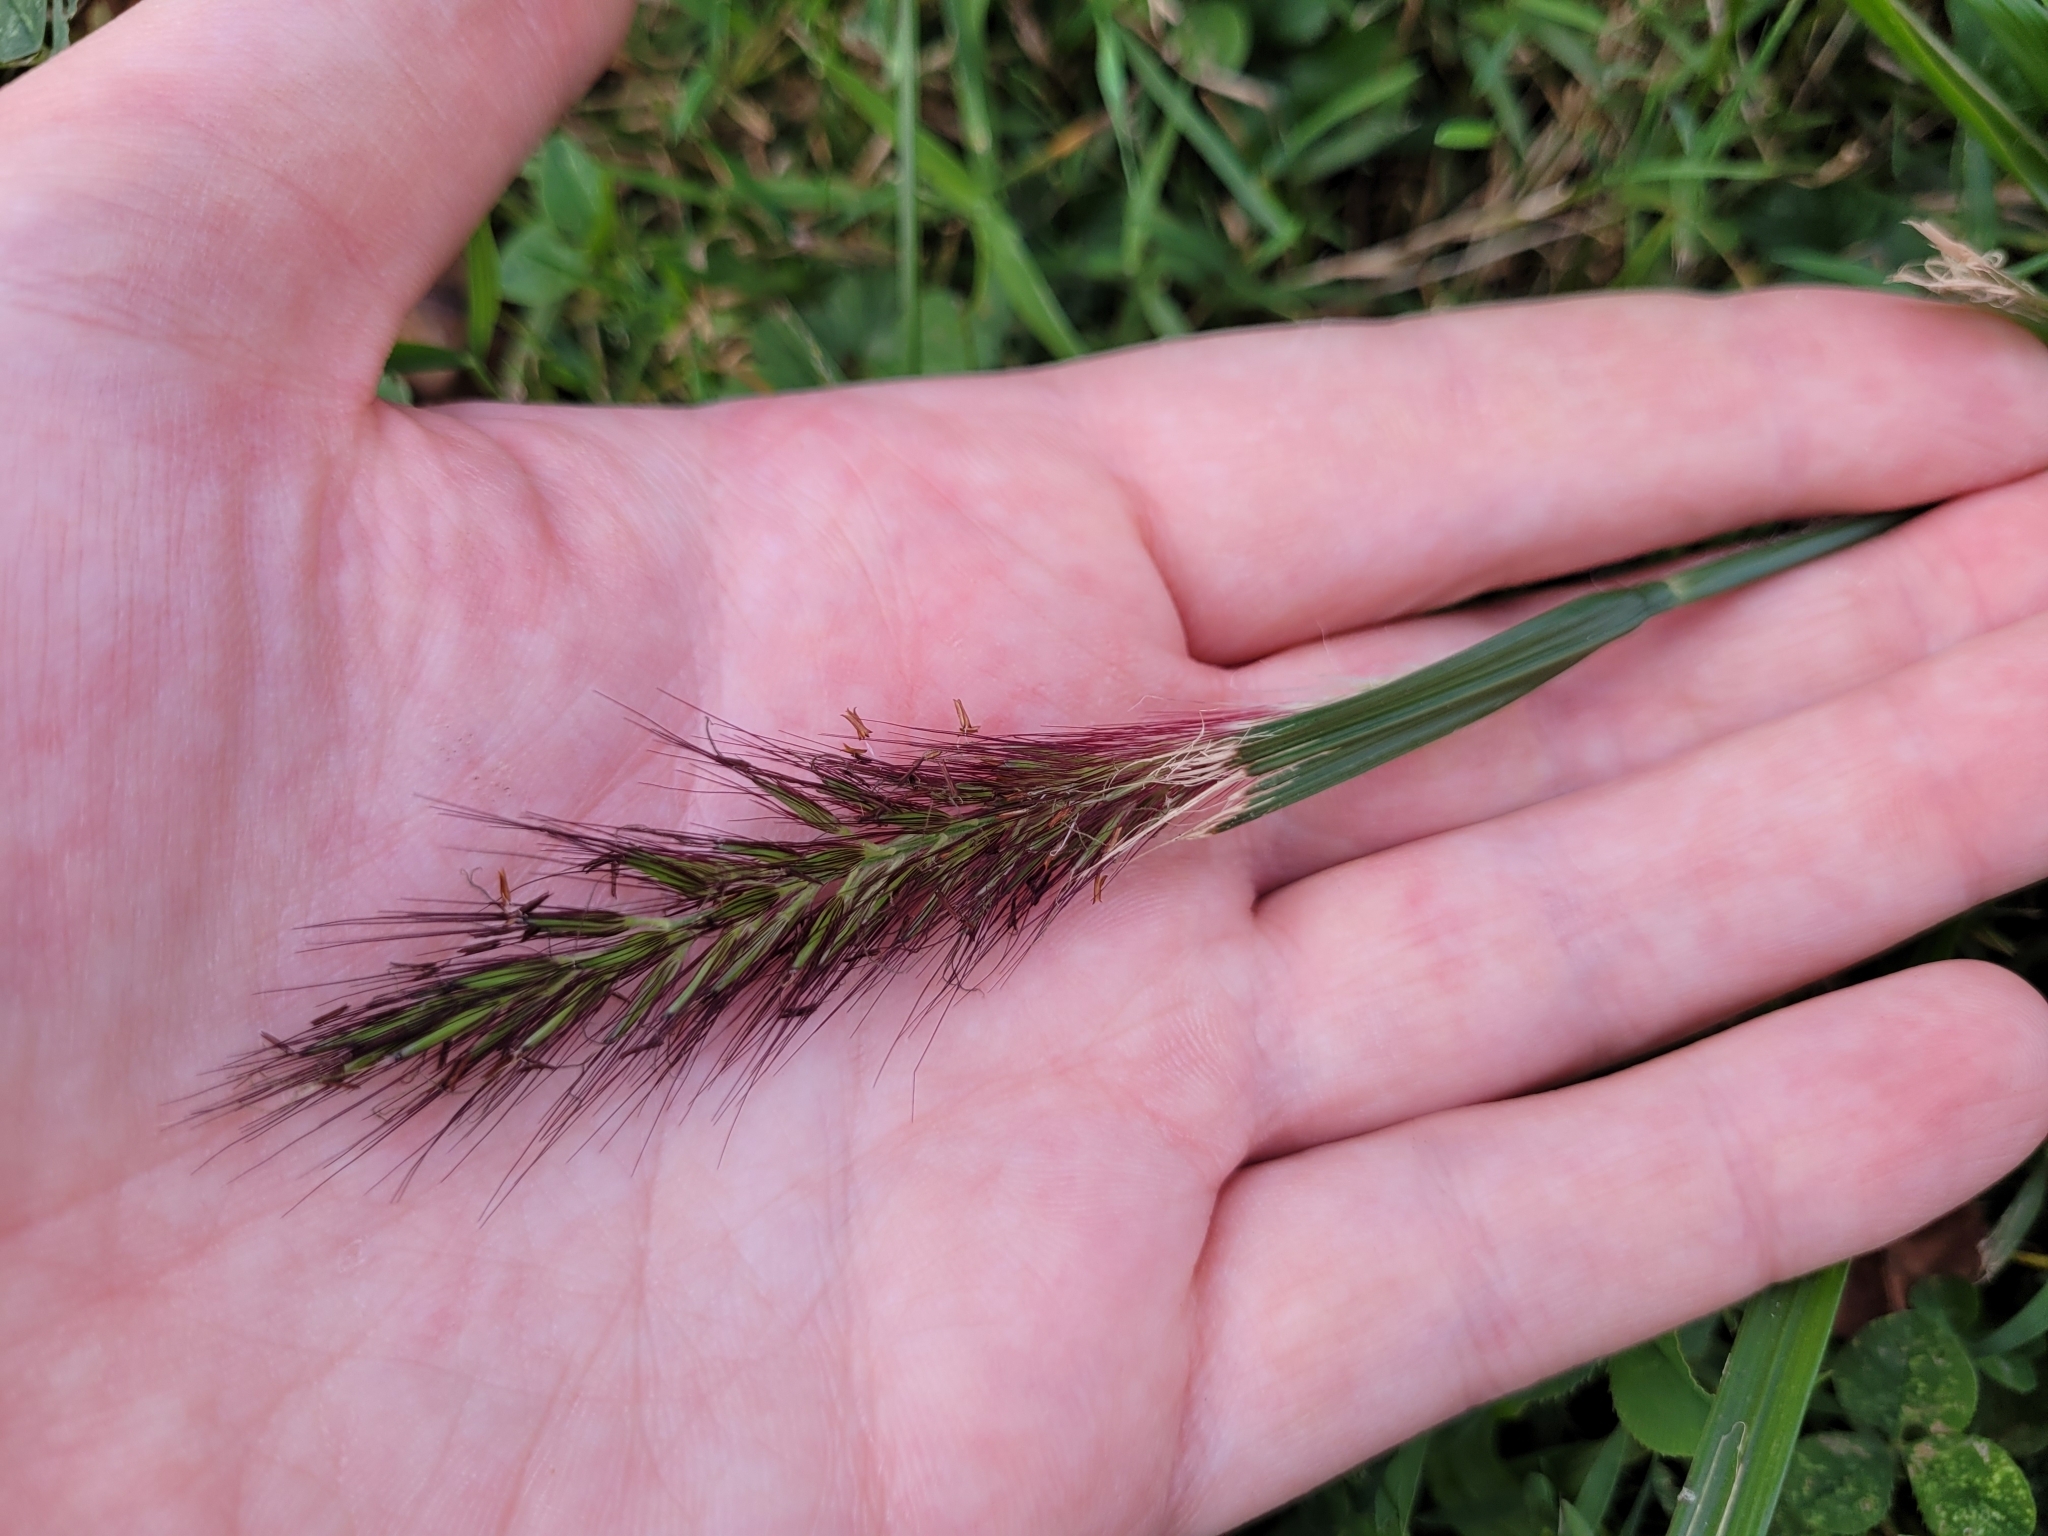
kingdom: Plantae
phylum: Tracheophyta
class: Liliopsida
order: Poales
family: Poaceae
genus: Cenchrus
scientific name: Cenchrus alopecuroides
